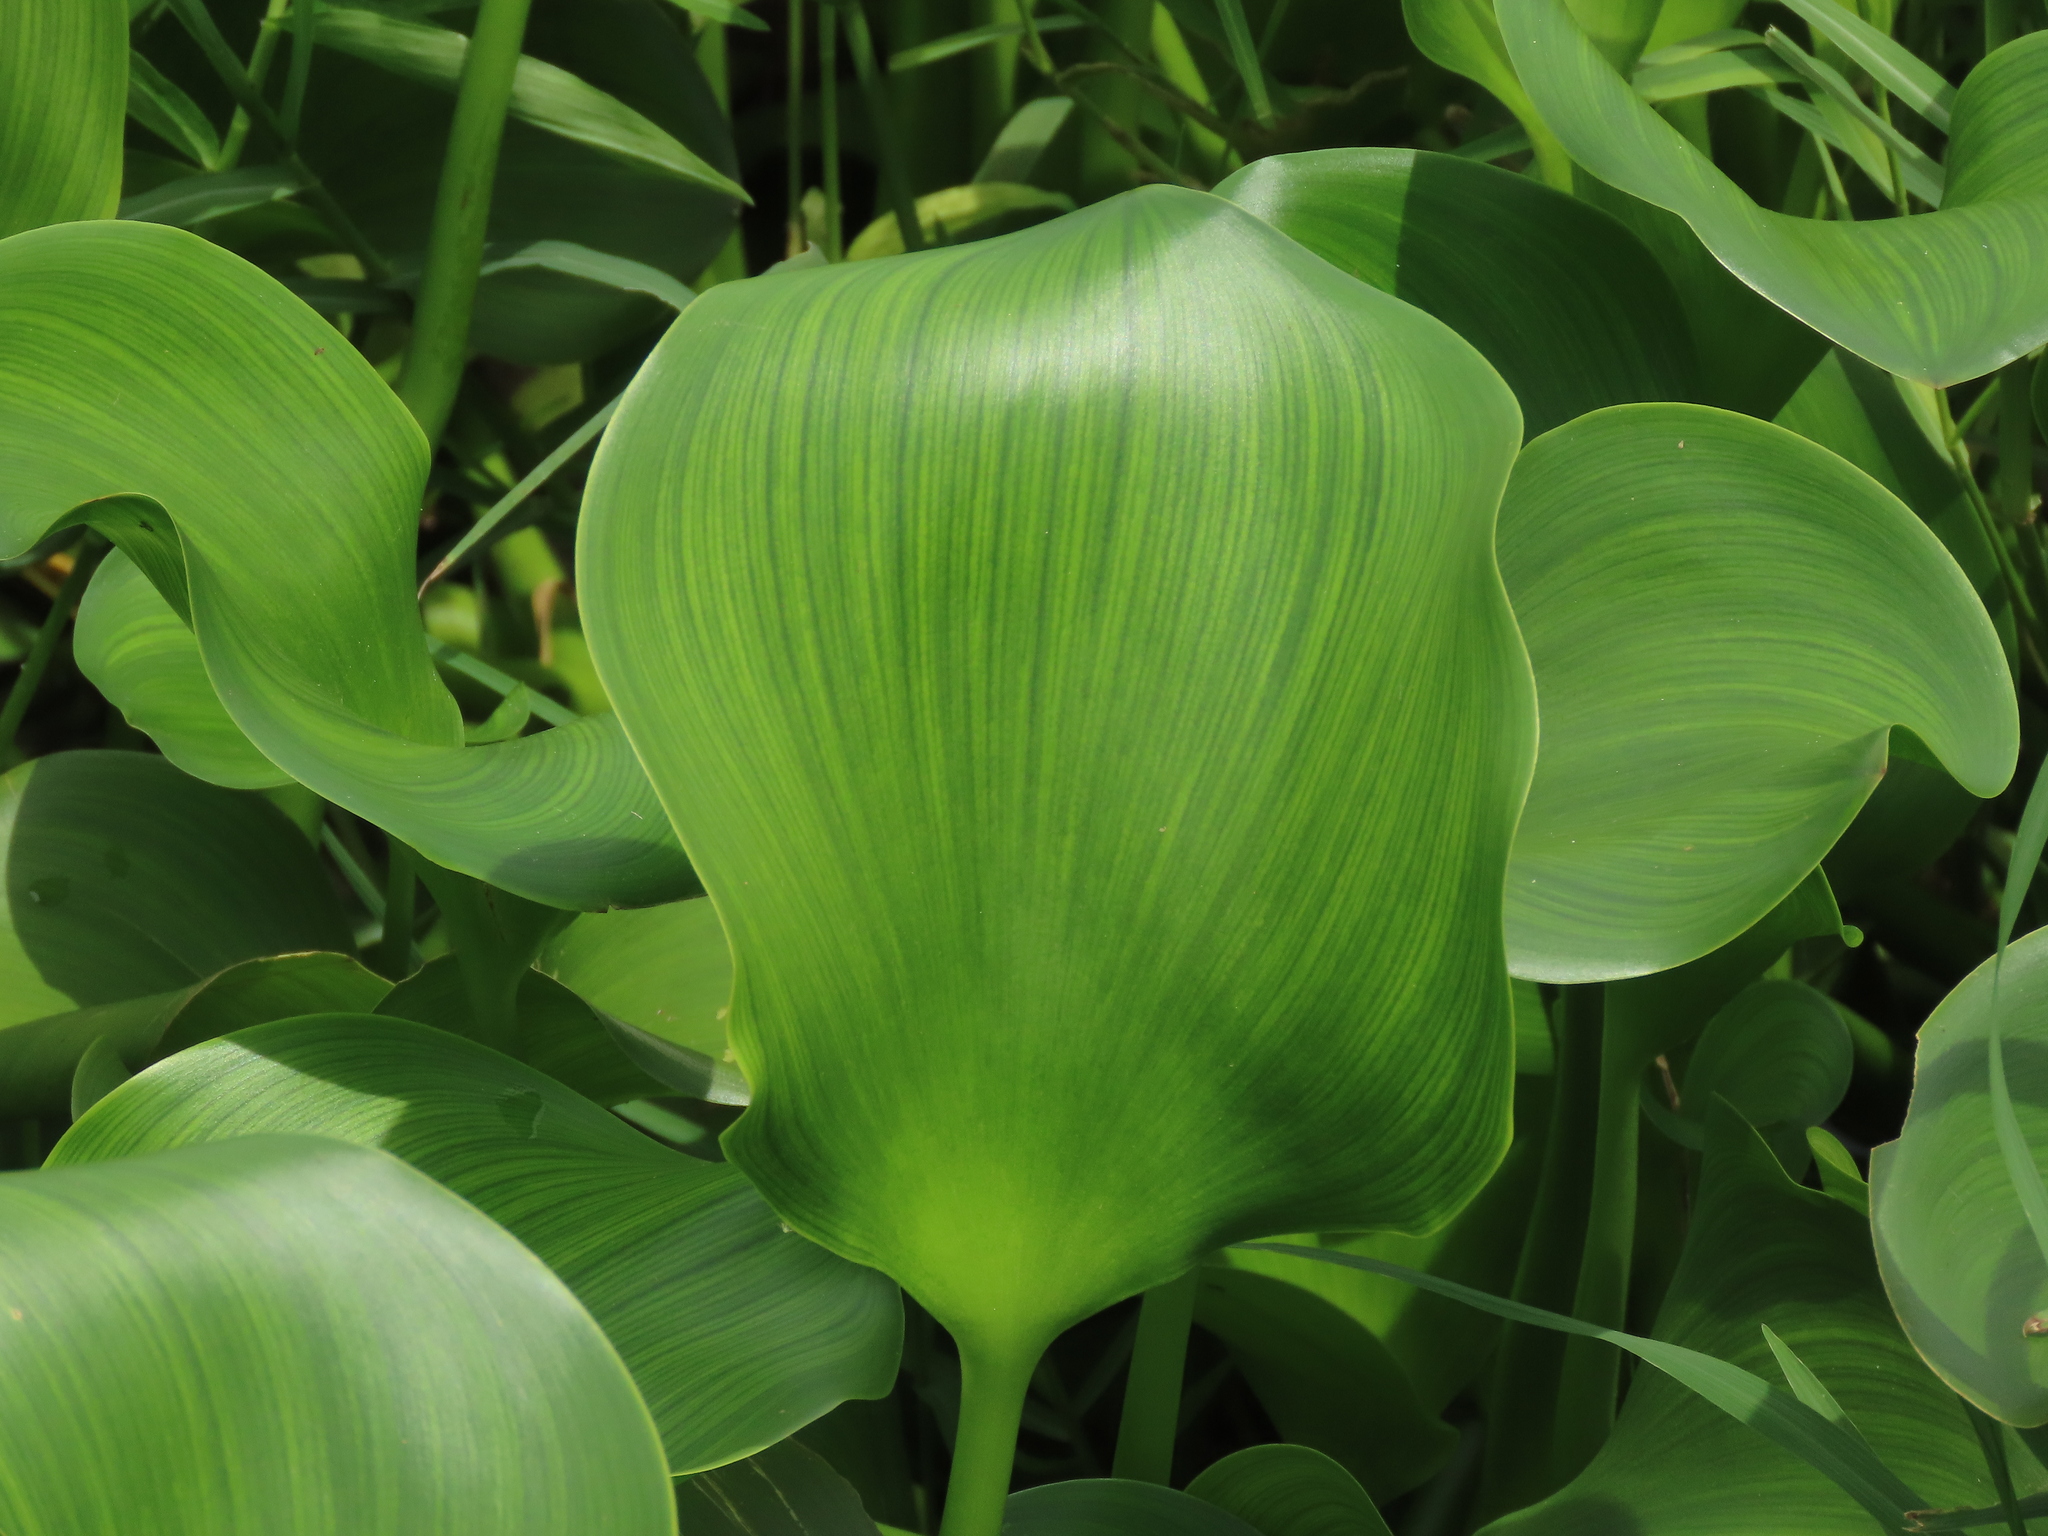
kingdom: Plantae
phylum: Tracheophyta
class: Liliopsida
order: Commelinales
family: Pontederiaceae
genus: Pontederia
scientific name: Pontederia crassipes
